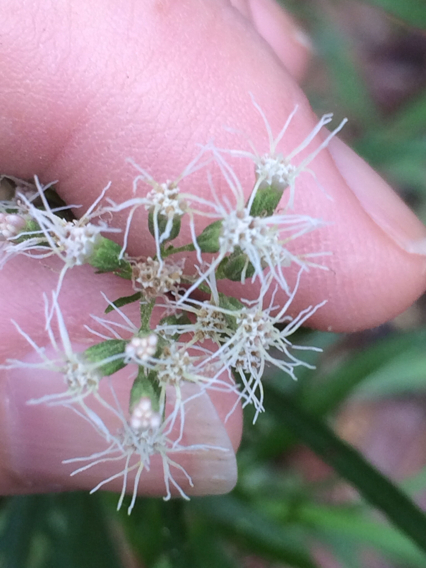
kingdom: Plantae
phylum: Tracheophyta
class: Magnoliopsida
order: Asterales
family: Asteraceae
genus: Eupatorium
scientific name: Eupatorium pinnatifidum
